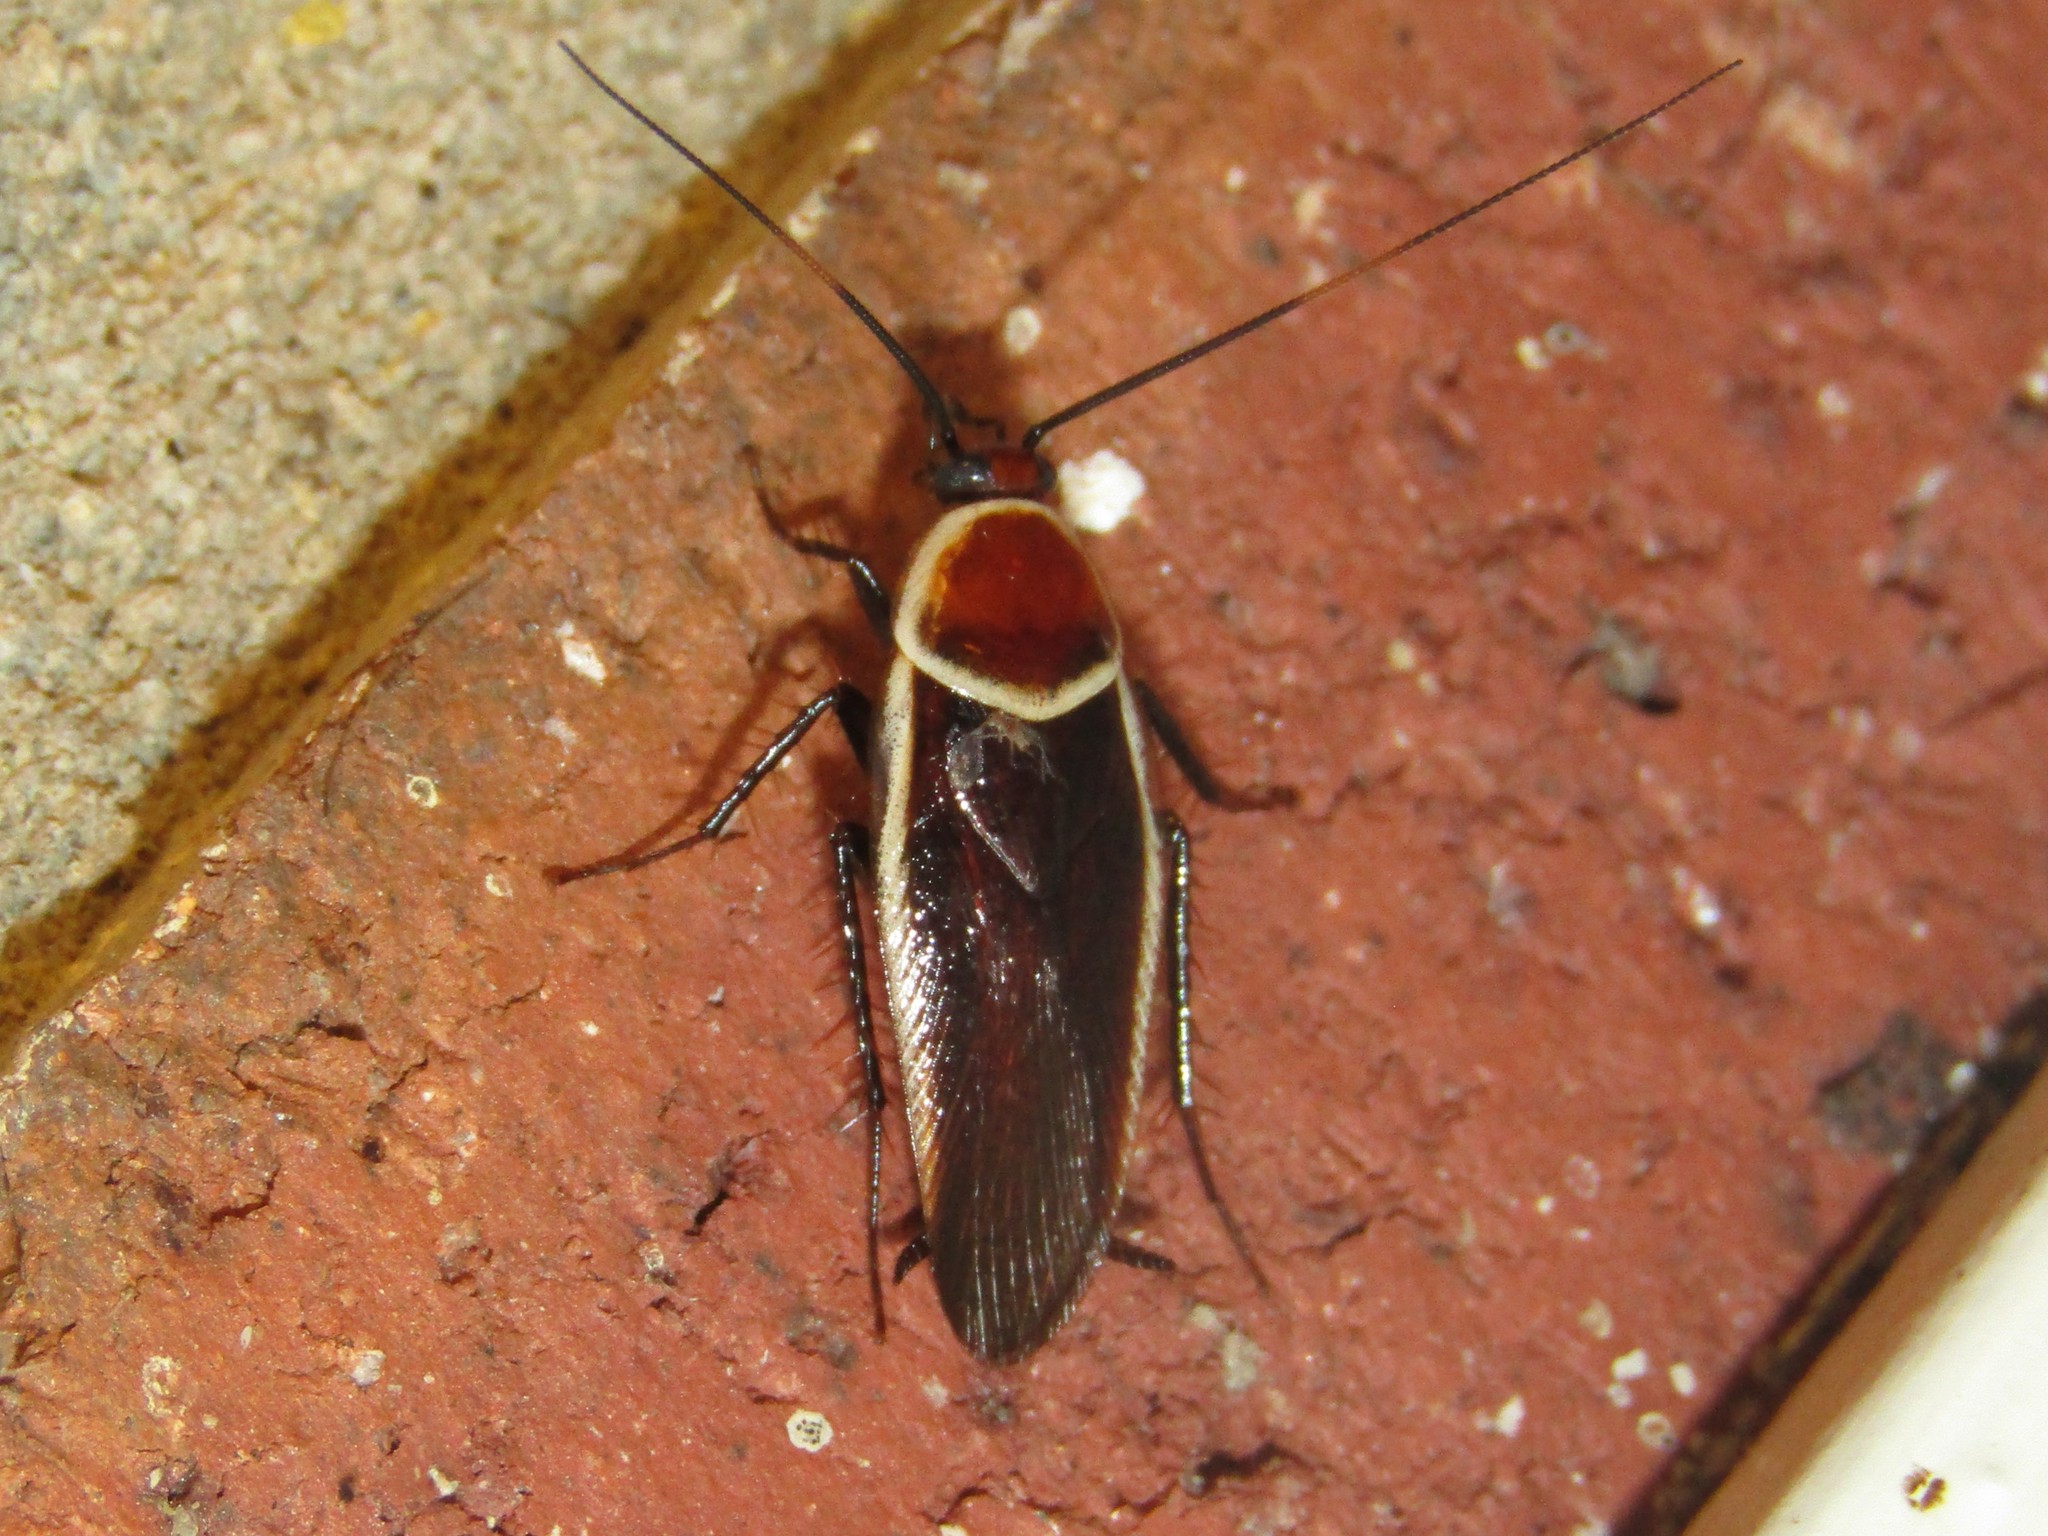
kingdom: Animalia
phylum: Arthropoda
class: Insecta
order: Blattodea
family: Ectobiidae
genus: Pseudomops
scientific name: Pseudomops septentrionalis
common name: Pale-bordered field cockroach
